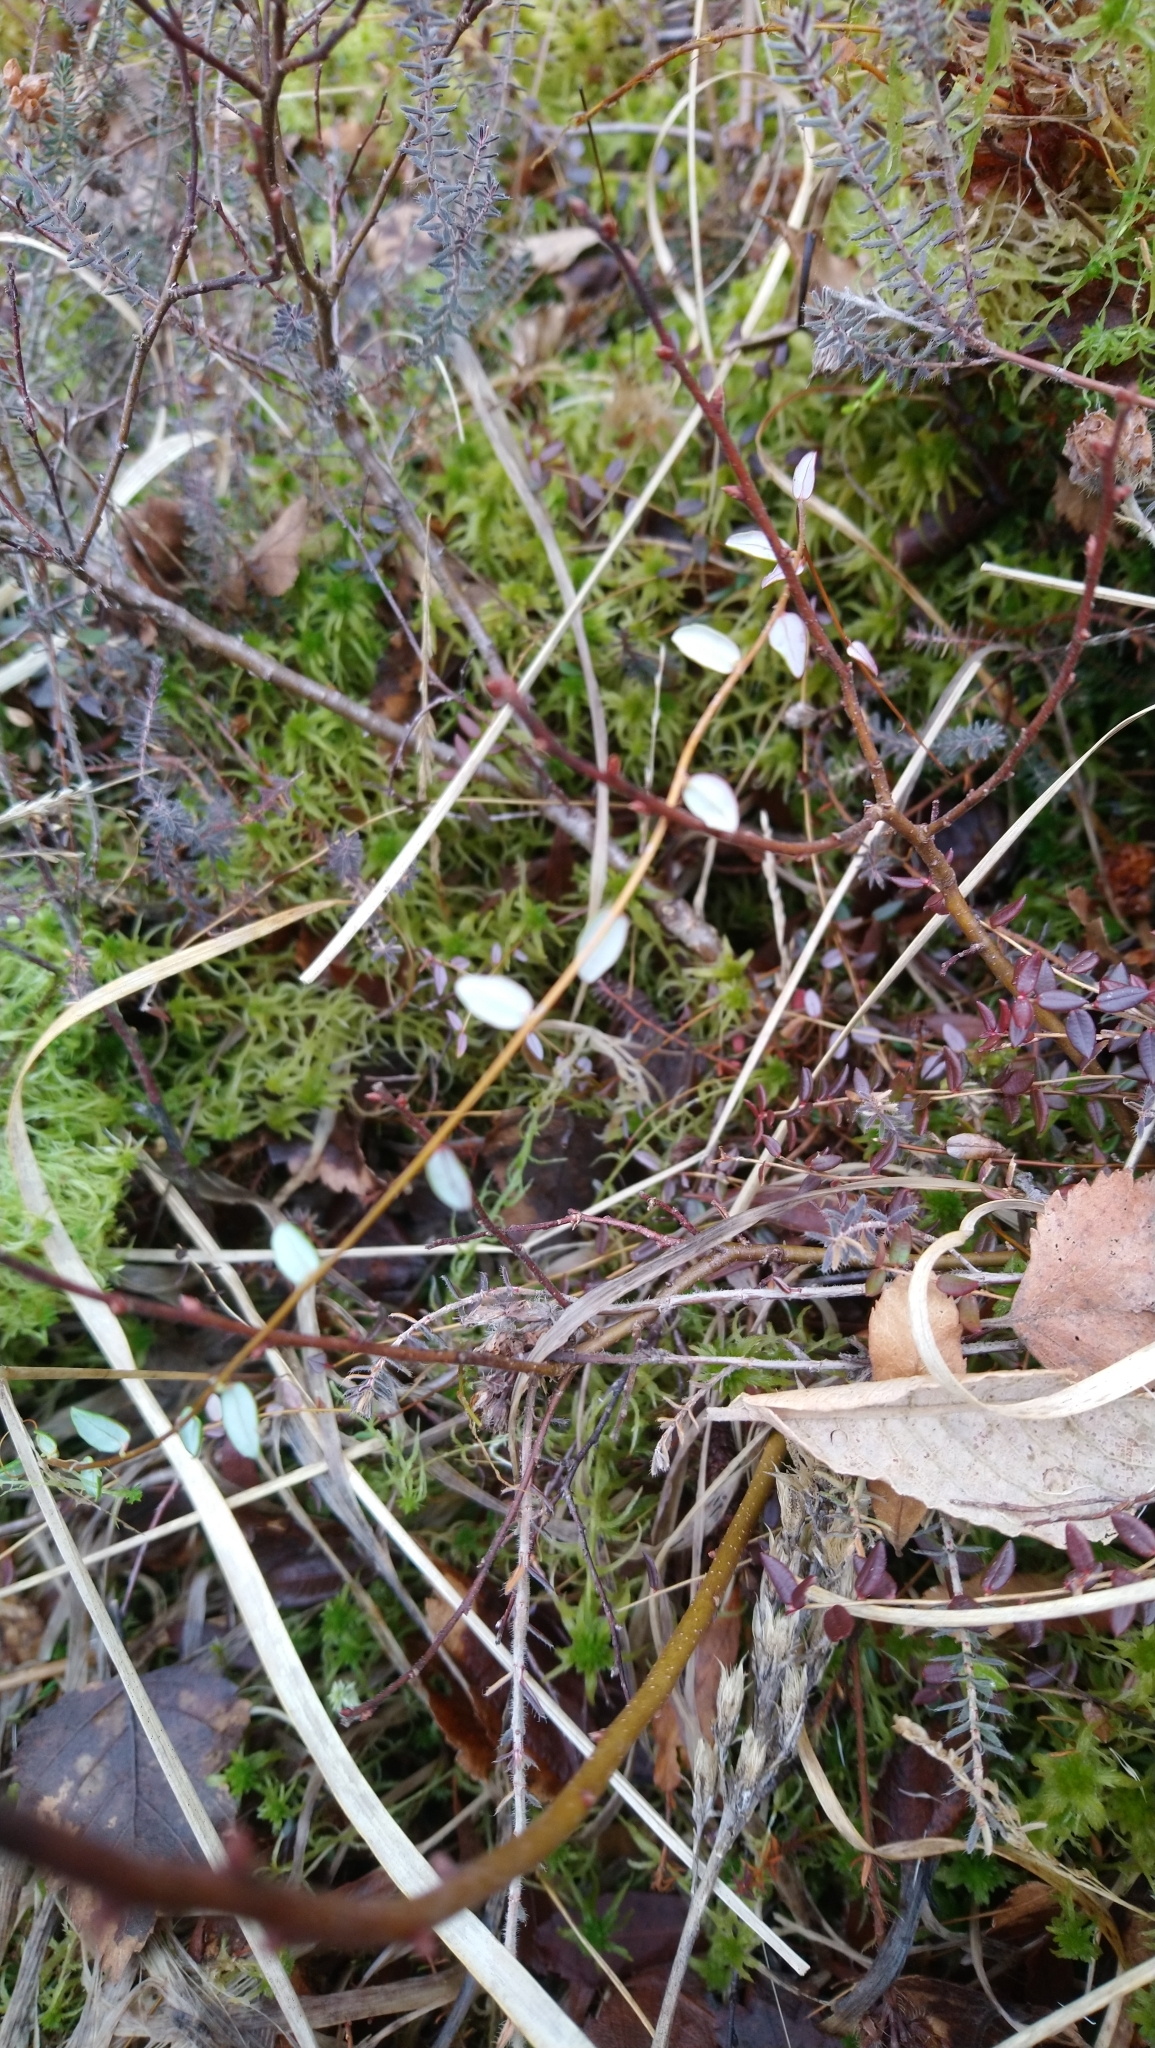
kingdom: Plantae
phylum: Tracheophyta
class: Magnoliopsida
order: Ericales
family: Ericaceae
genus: Vaccinium
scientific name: Vaccinium oxycoccos
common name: Cranberry
